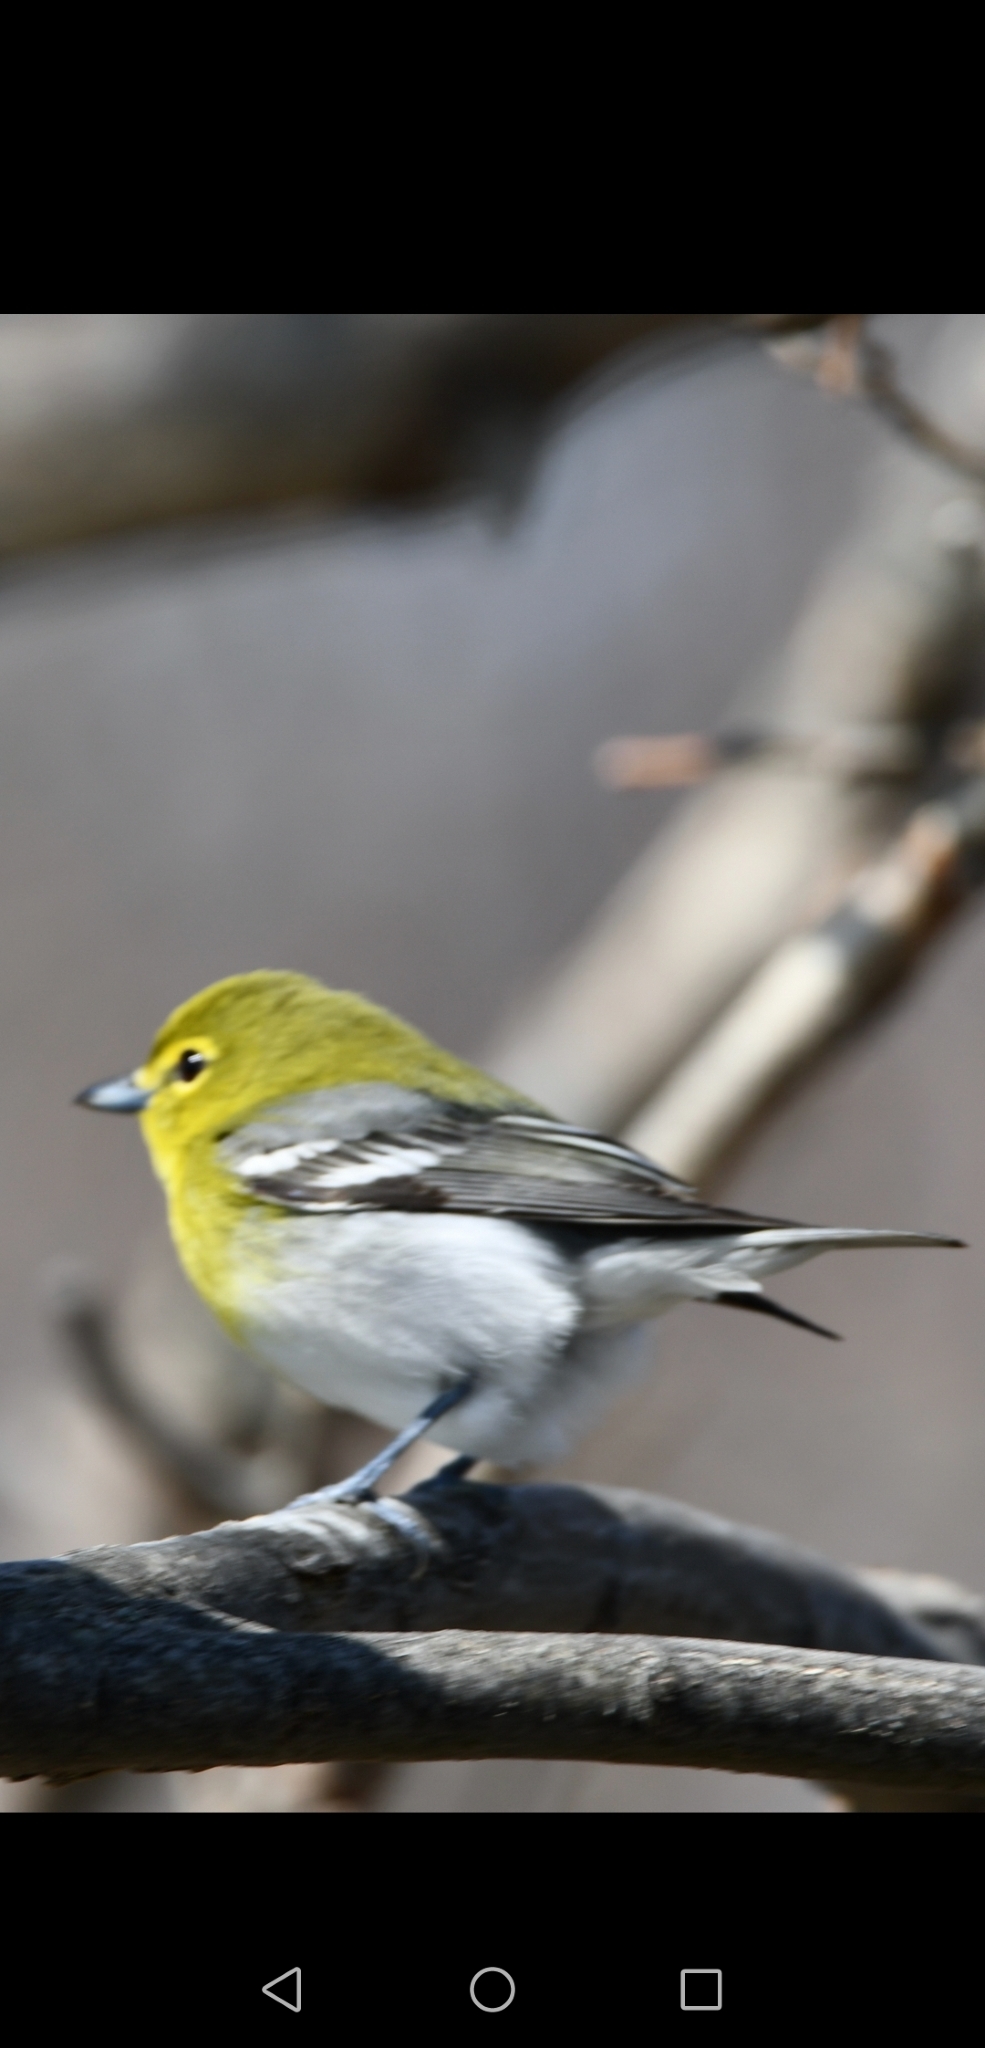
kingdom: Animalia
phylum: Chordata
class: Aves
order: Passeriformes
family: Vireonidae
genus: Vireo
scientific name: Vireo flavifrons
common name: Yellow-throated vireo
